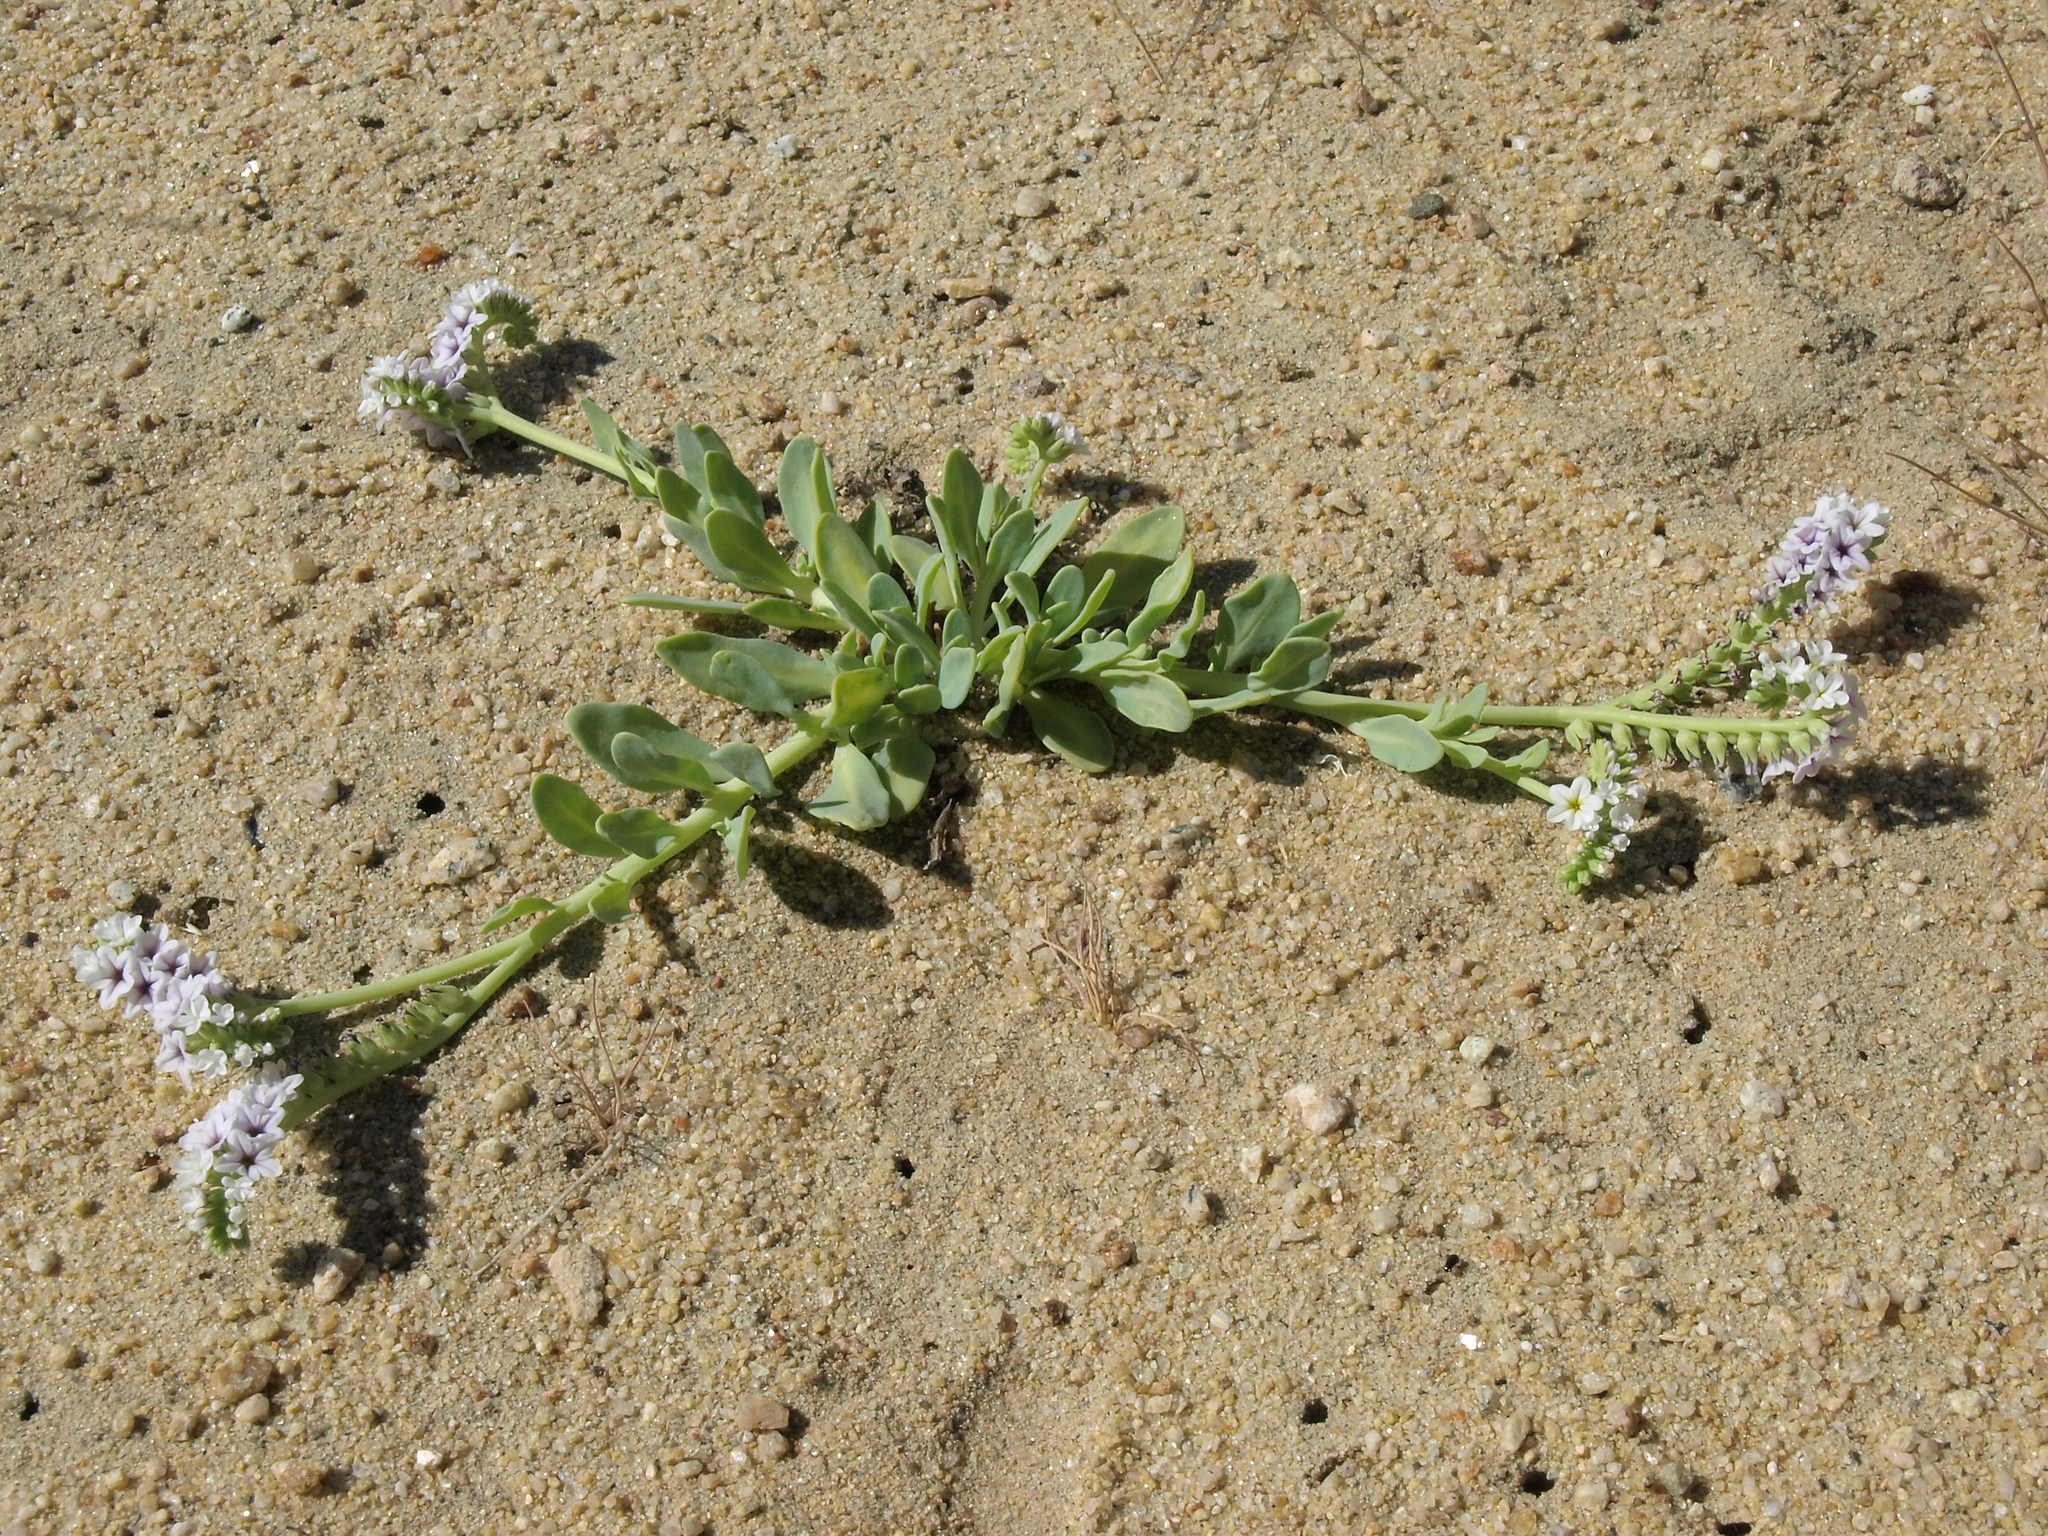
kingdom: Plantae
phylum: Tracheophyta
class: Magnoliopsida
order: Boraginales
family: Heliotropiaceae
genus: Heliotropium
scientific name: Heliotropium curassavicum
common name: Seaside heliotrope
